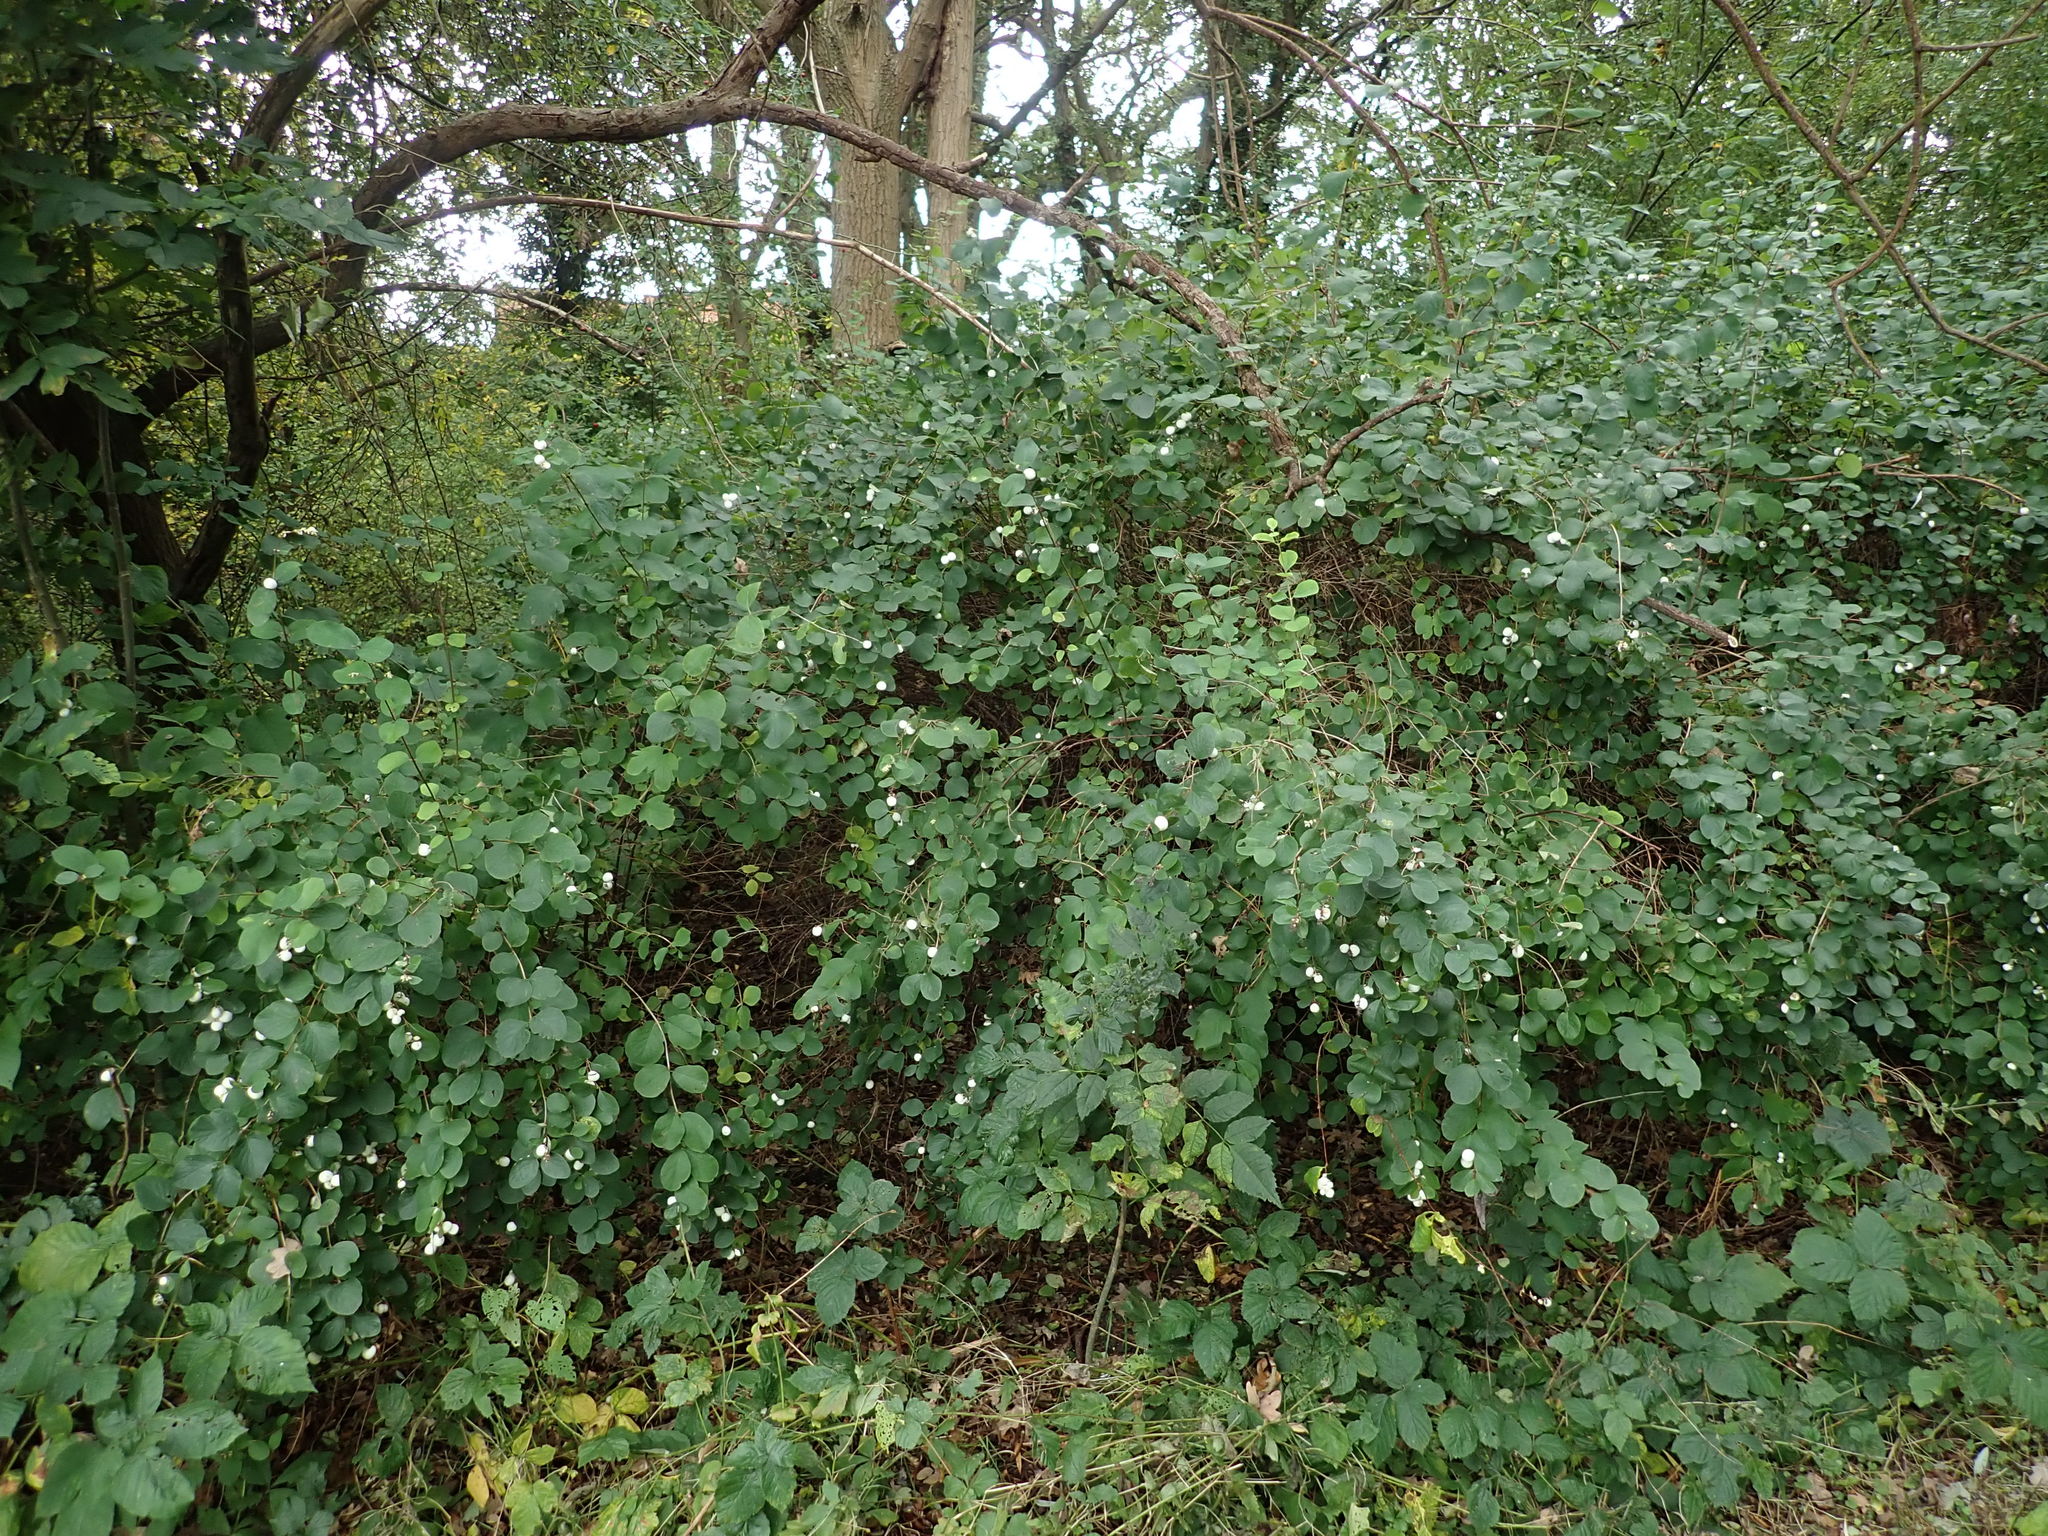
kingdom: Plantae
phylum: Tracheophyta
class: Magnoliopsida
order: Dipsacales
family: Caprifoliaceae
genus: Symphoricarpos
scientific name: Symphoricarpos albus
